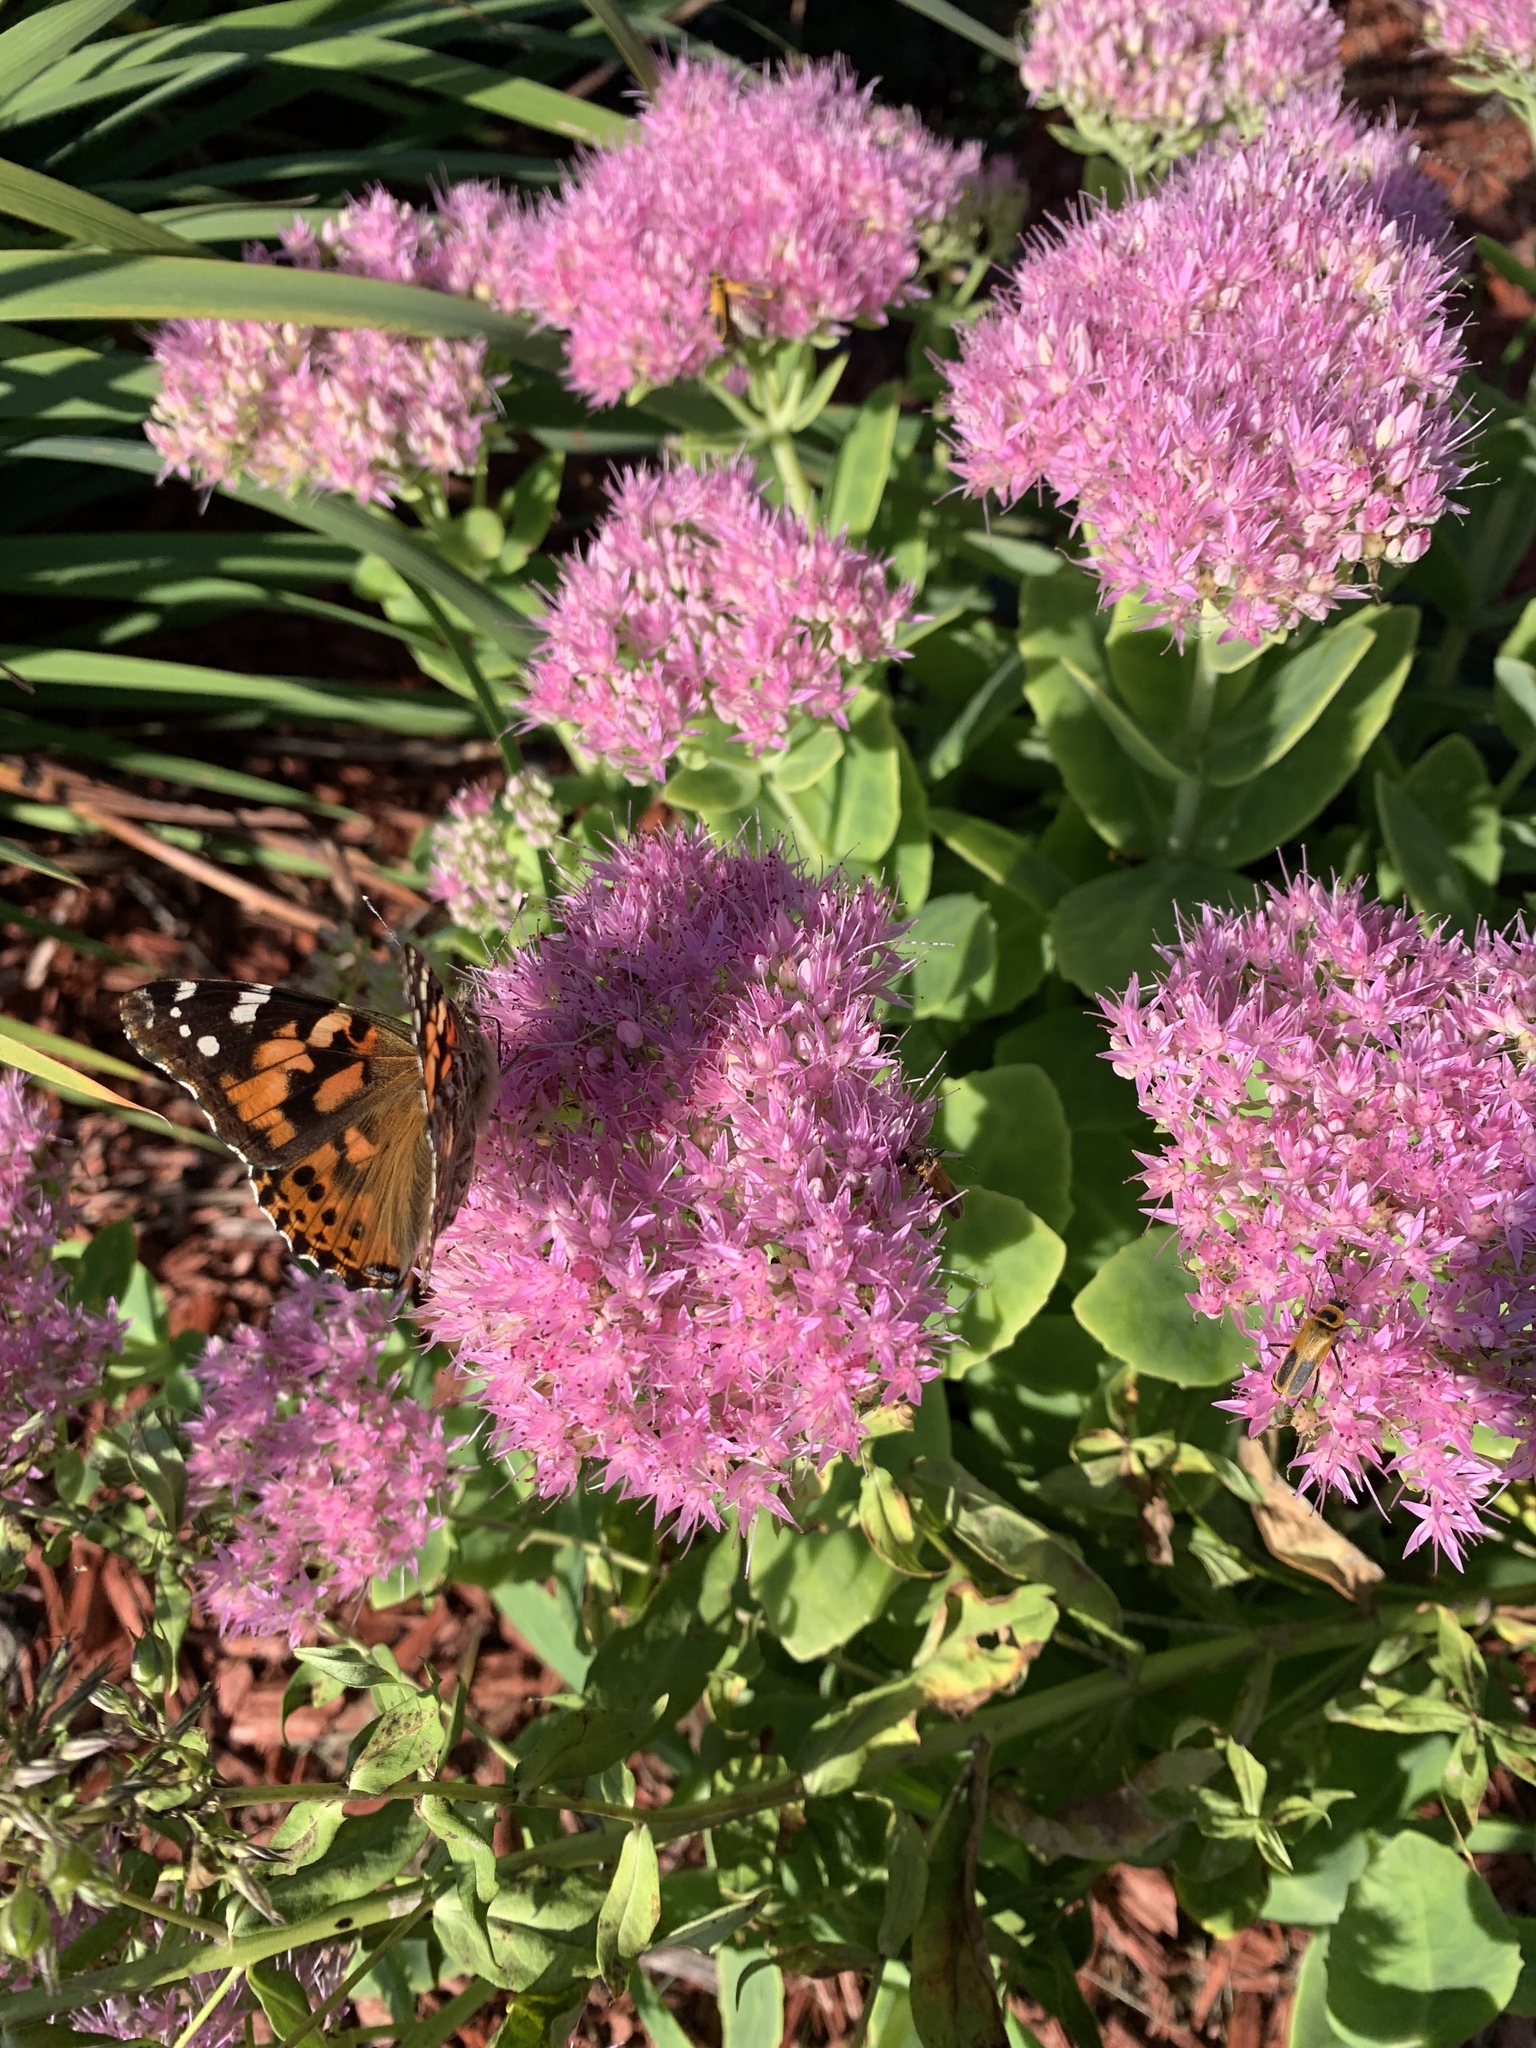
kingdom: Animalia
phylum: Arthropoda
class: Insecta
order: Lepidoptera
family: Nymphalidae
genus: Vanessa
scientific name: Vanessa cardui
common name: Painted lady
